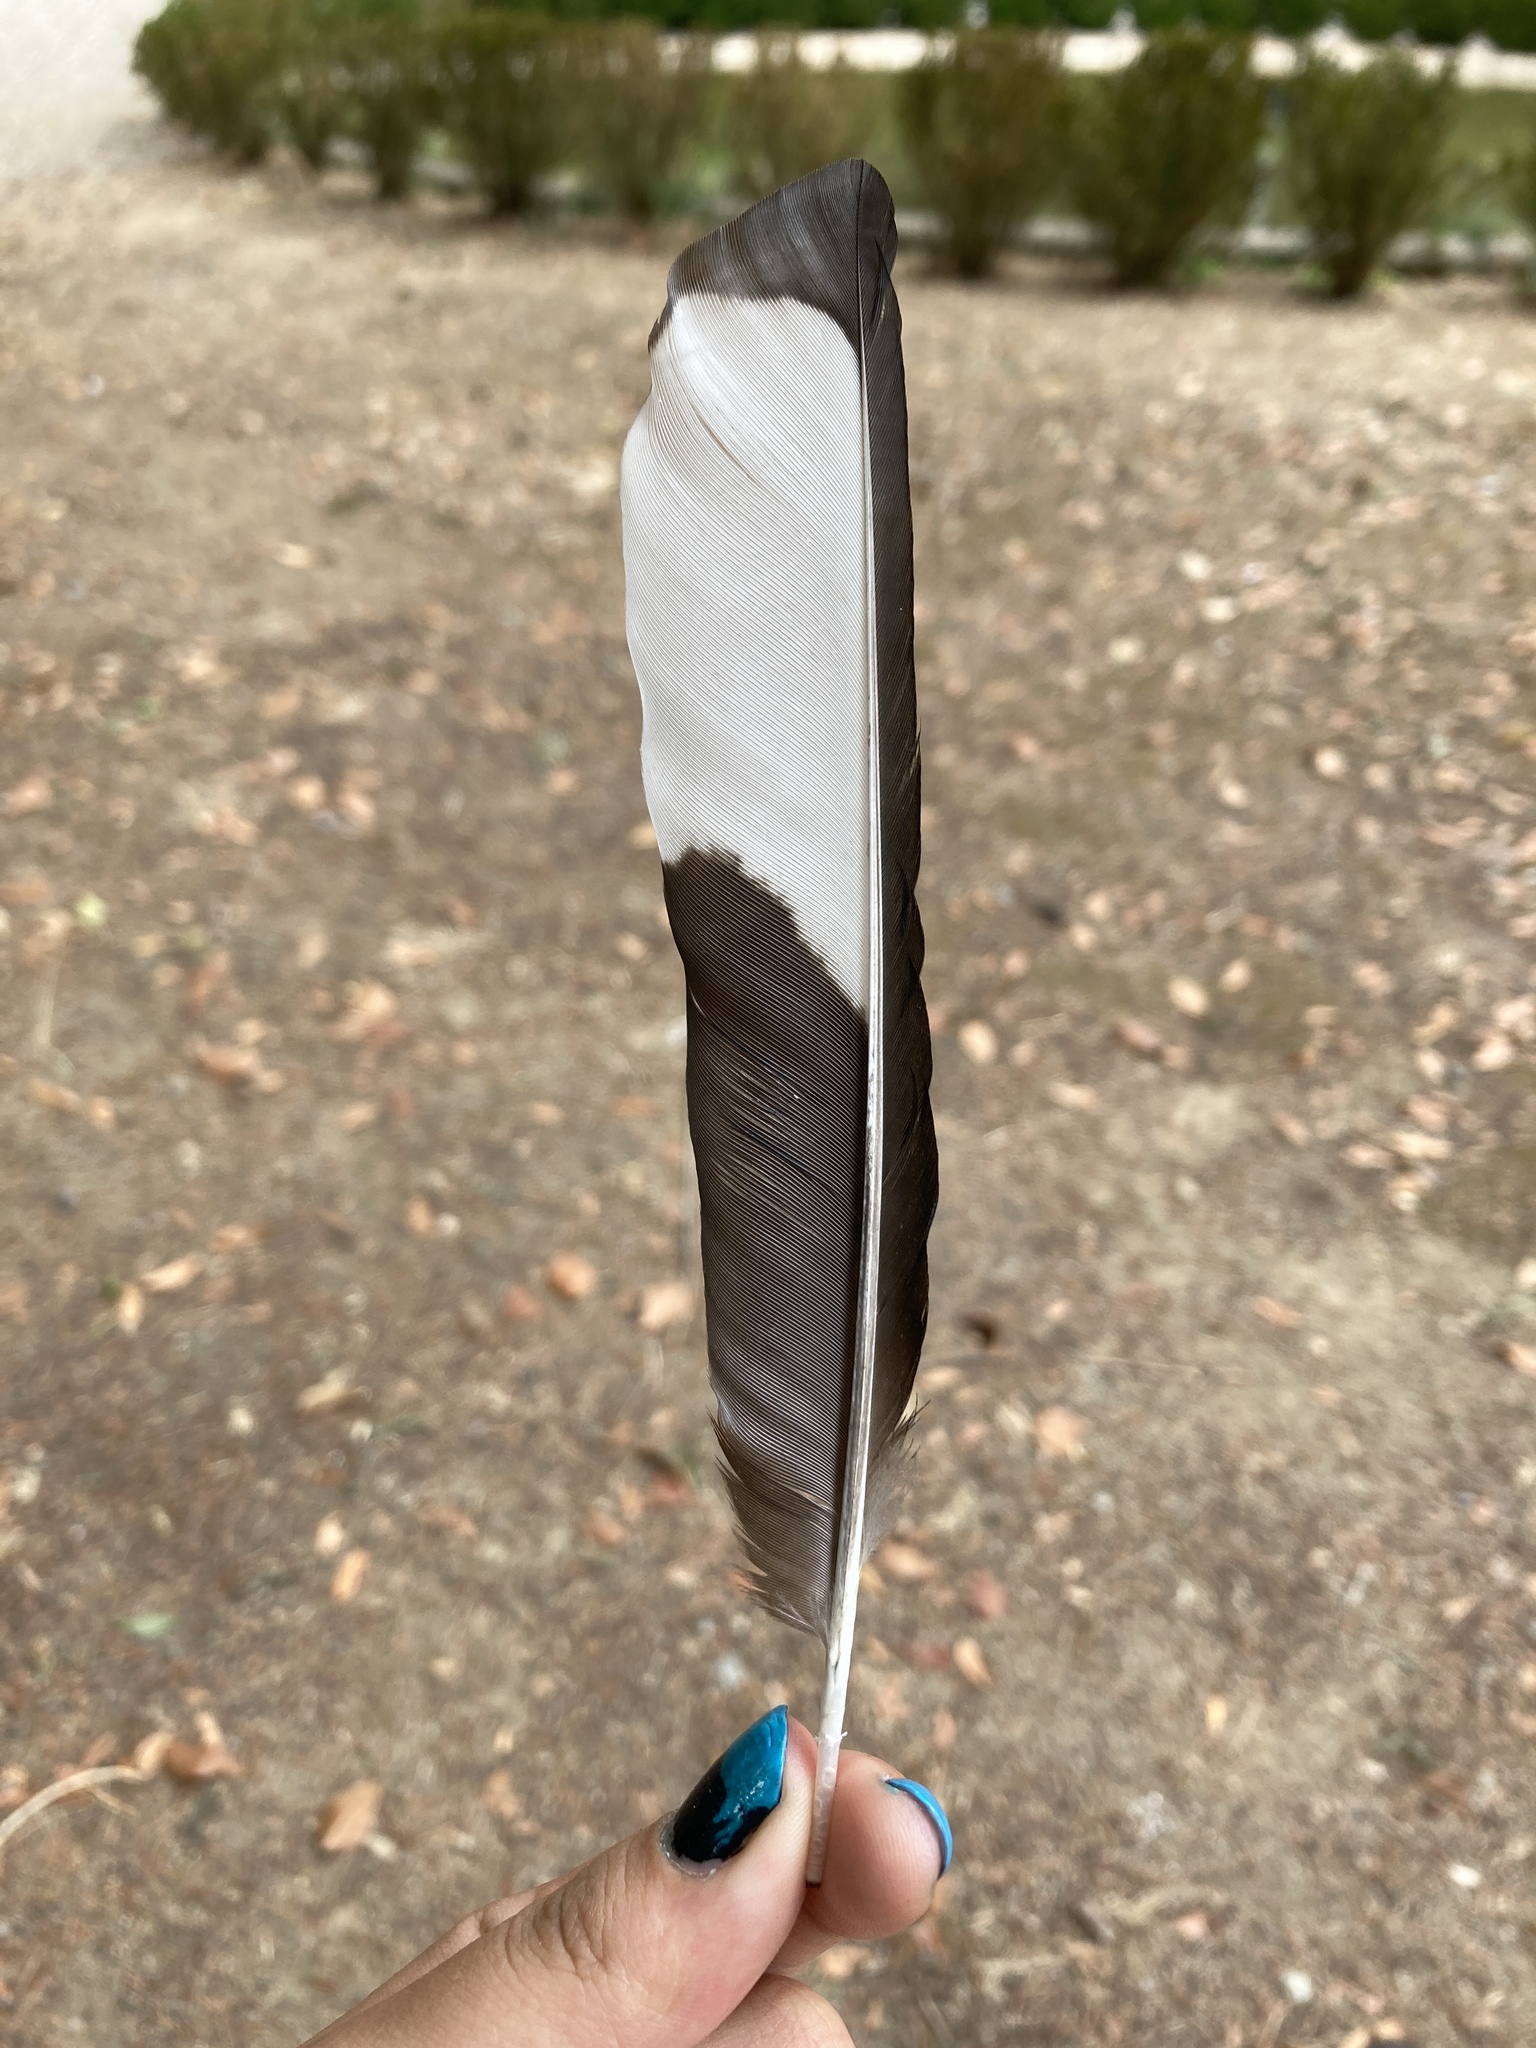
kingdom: Animalia
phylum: Chordata
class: Aves
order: Passeriformes
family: Corvidae
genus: Pica
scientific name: Pica pica
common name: Eurasian magpie
